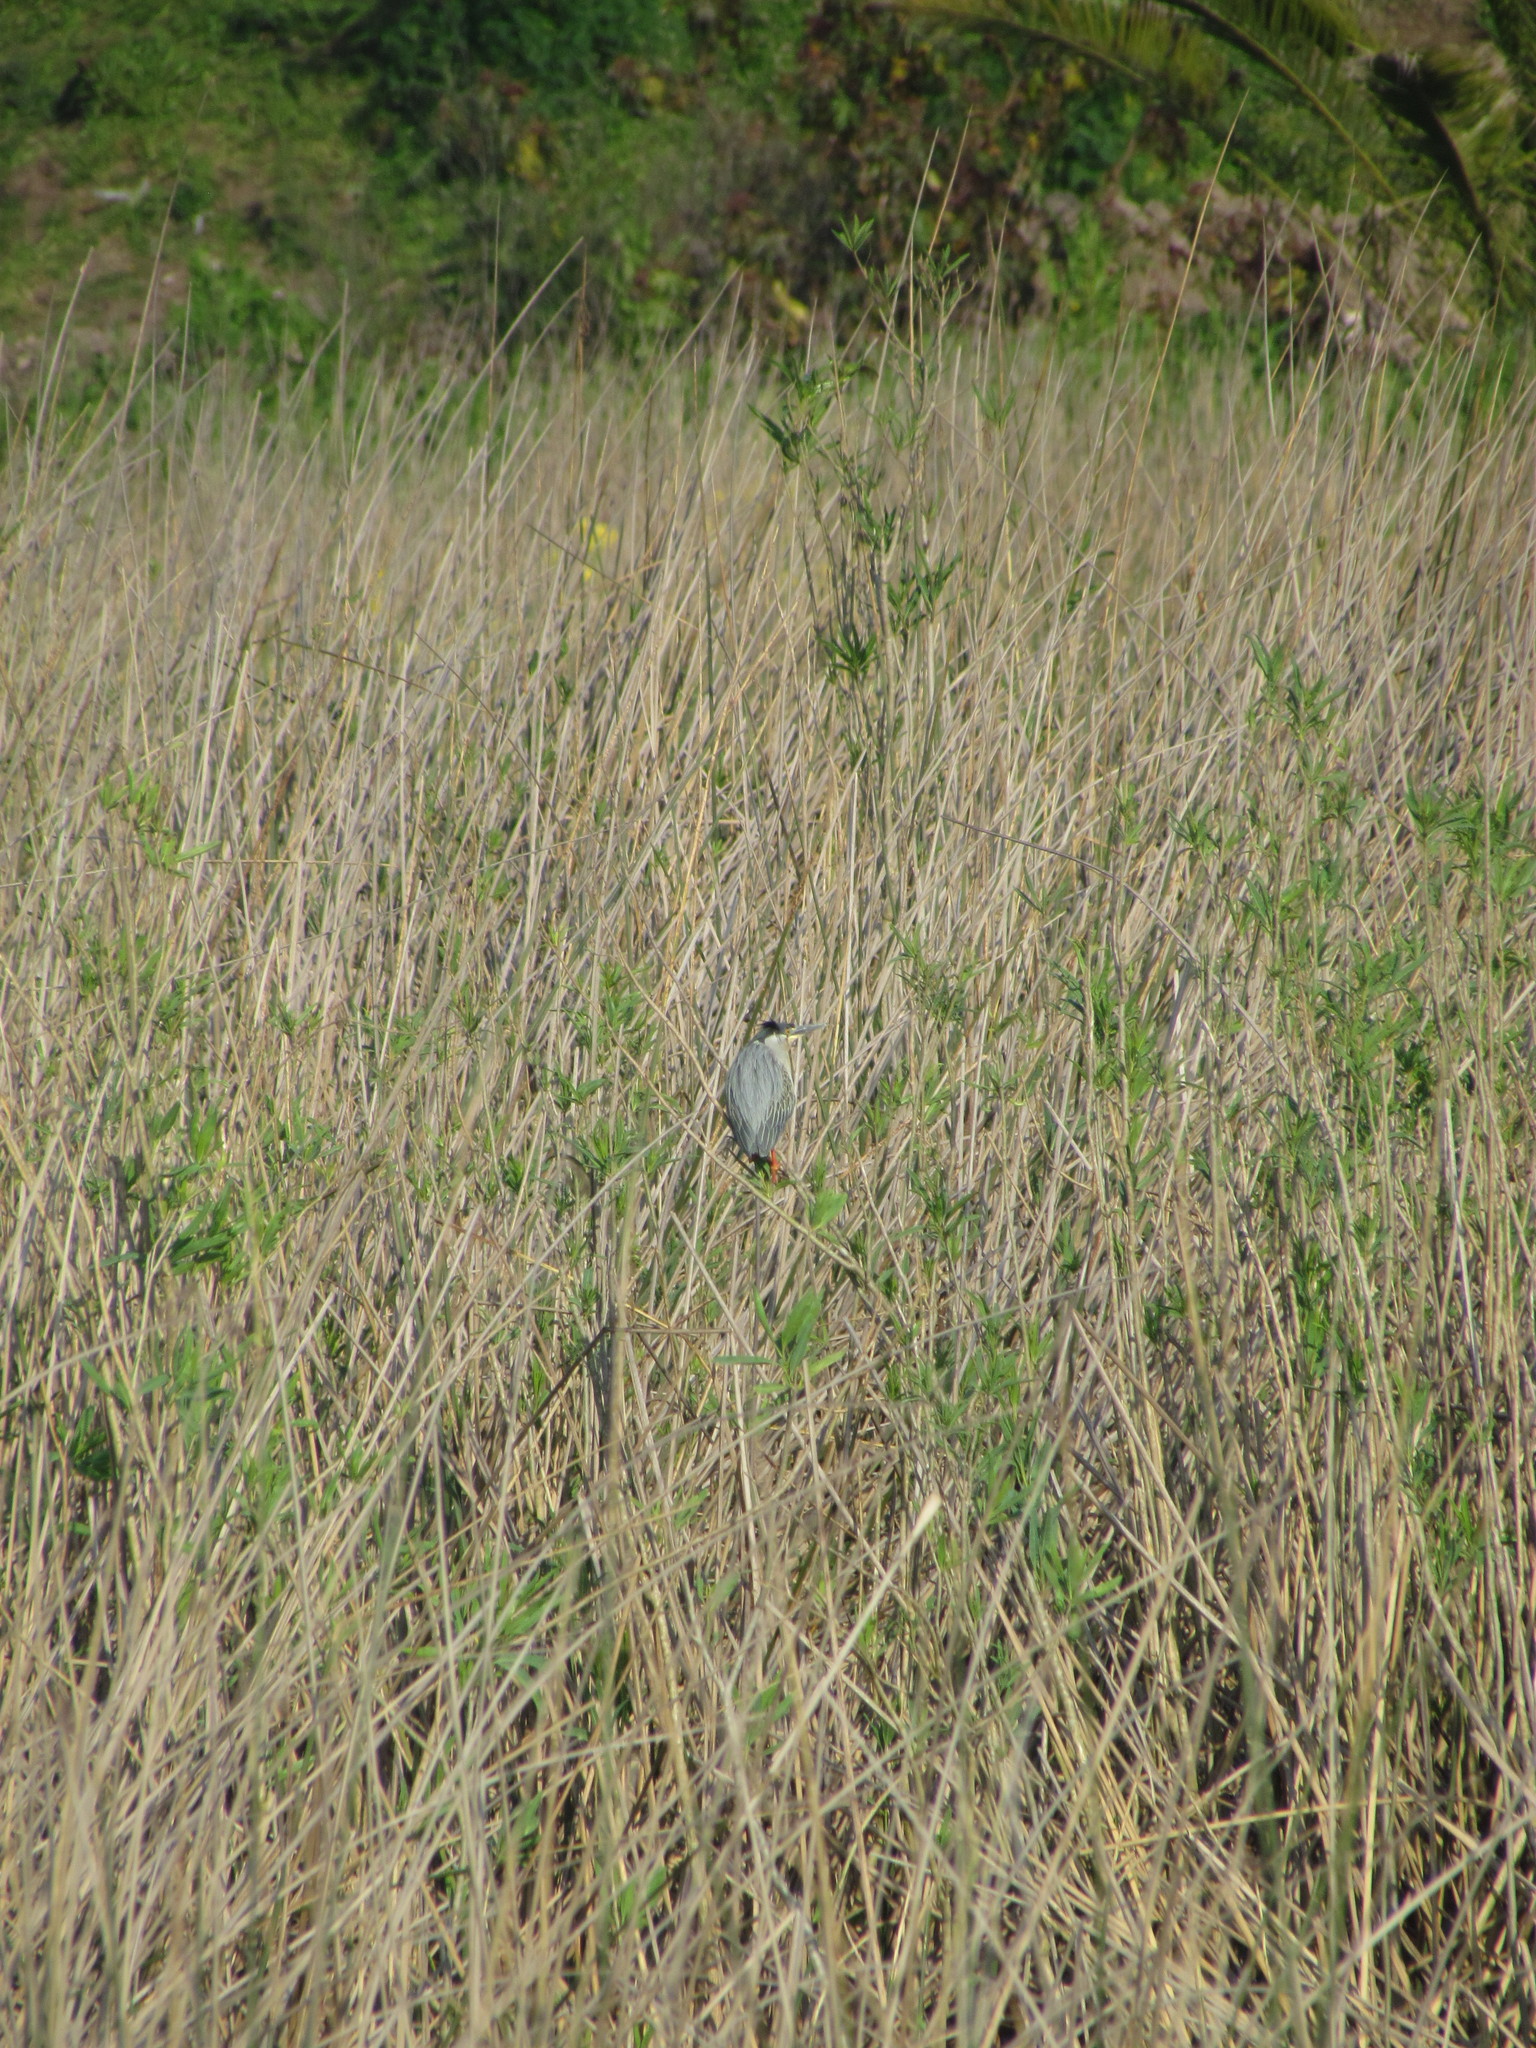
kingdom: Animalia
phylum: Chordata
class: Aves
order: Pelecaniformes
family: Ardeidae
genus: Butorides
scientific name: Butorides striata
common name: Striated heron
